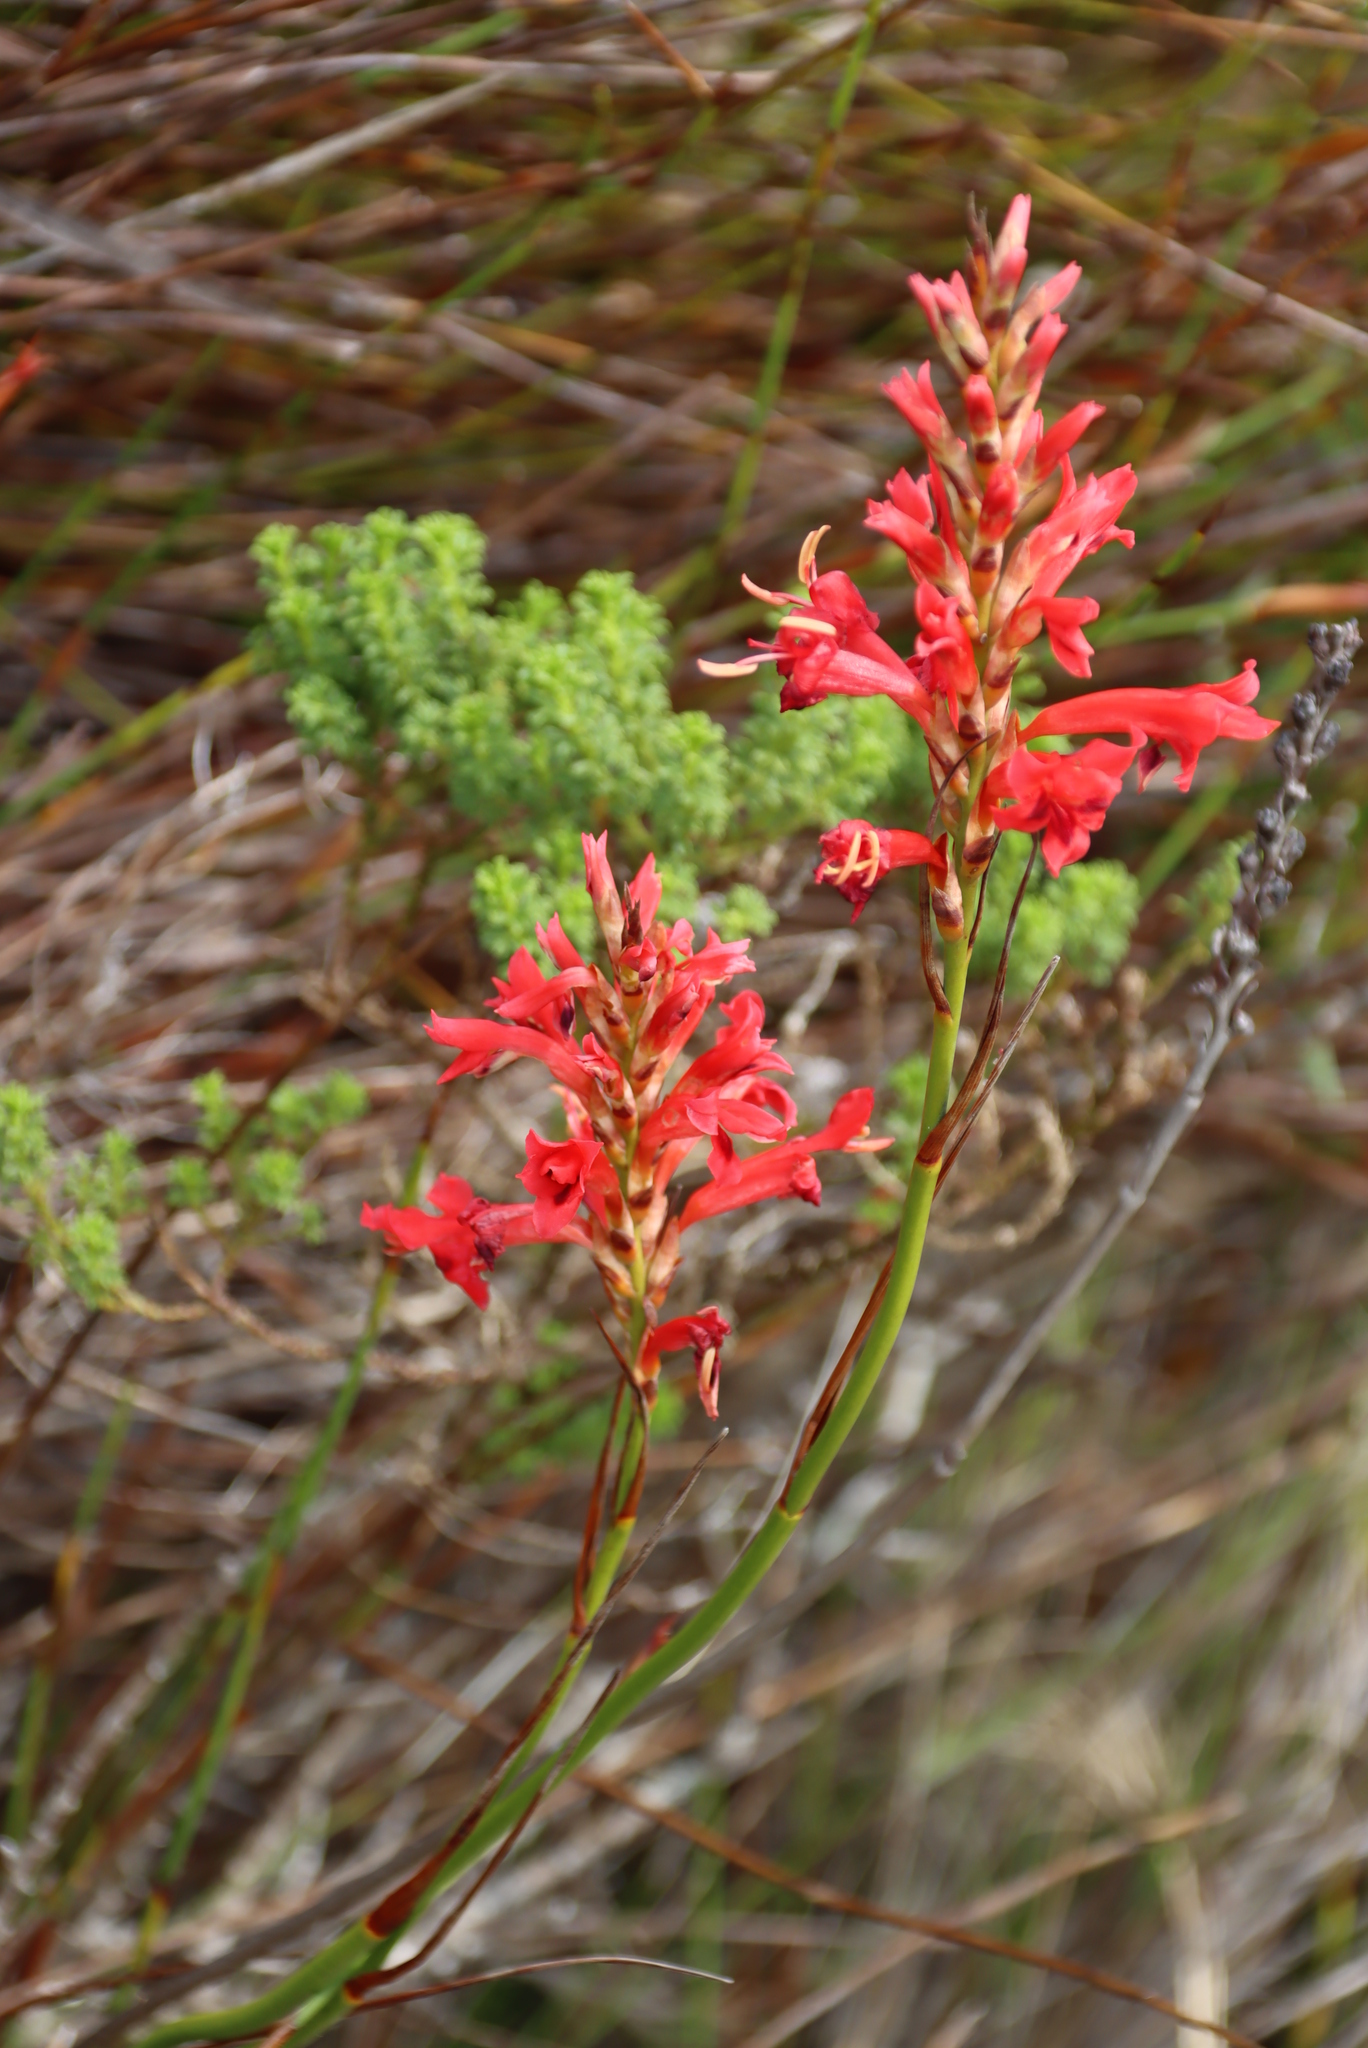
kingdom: Plantae
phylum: Tracheophyta
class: Liliopsida
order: Asparagales
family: Iridaceae
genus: Tritoniopsis
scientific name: Tritoniopsis triticea
